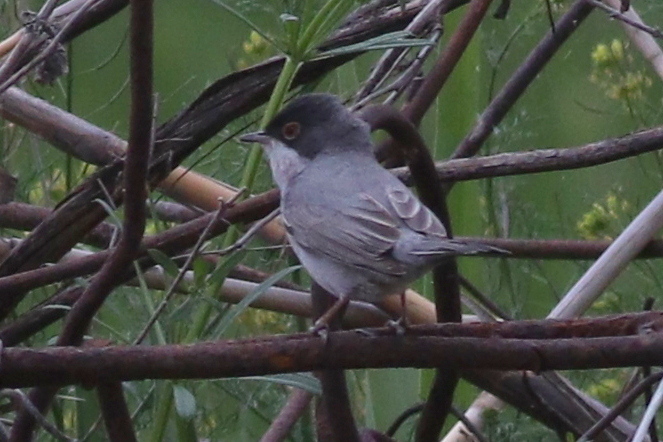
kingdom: Animalia
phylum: Chordata
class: Aves
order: Passeriformes
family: Sylviidae
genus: Sylvia
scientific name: Sylvia mystacea
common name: Menetries's warbler
